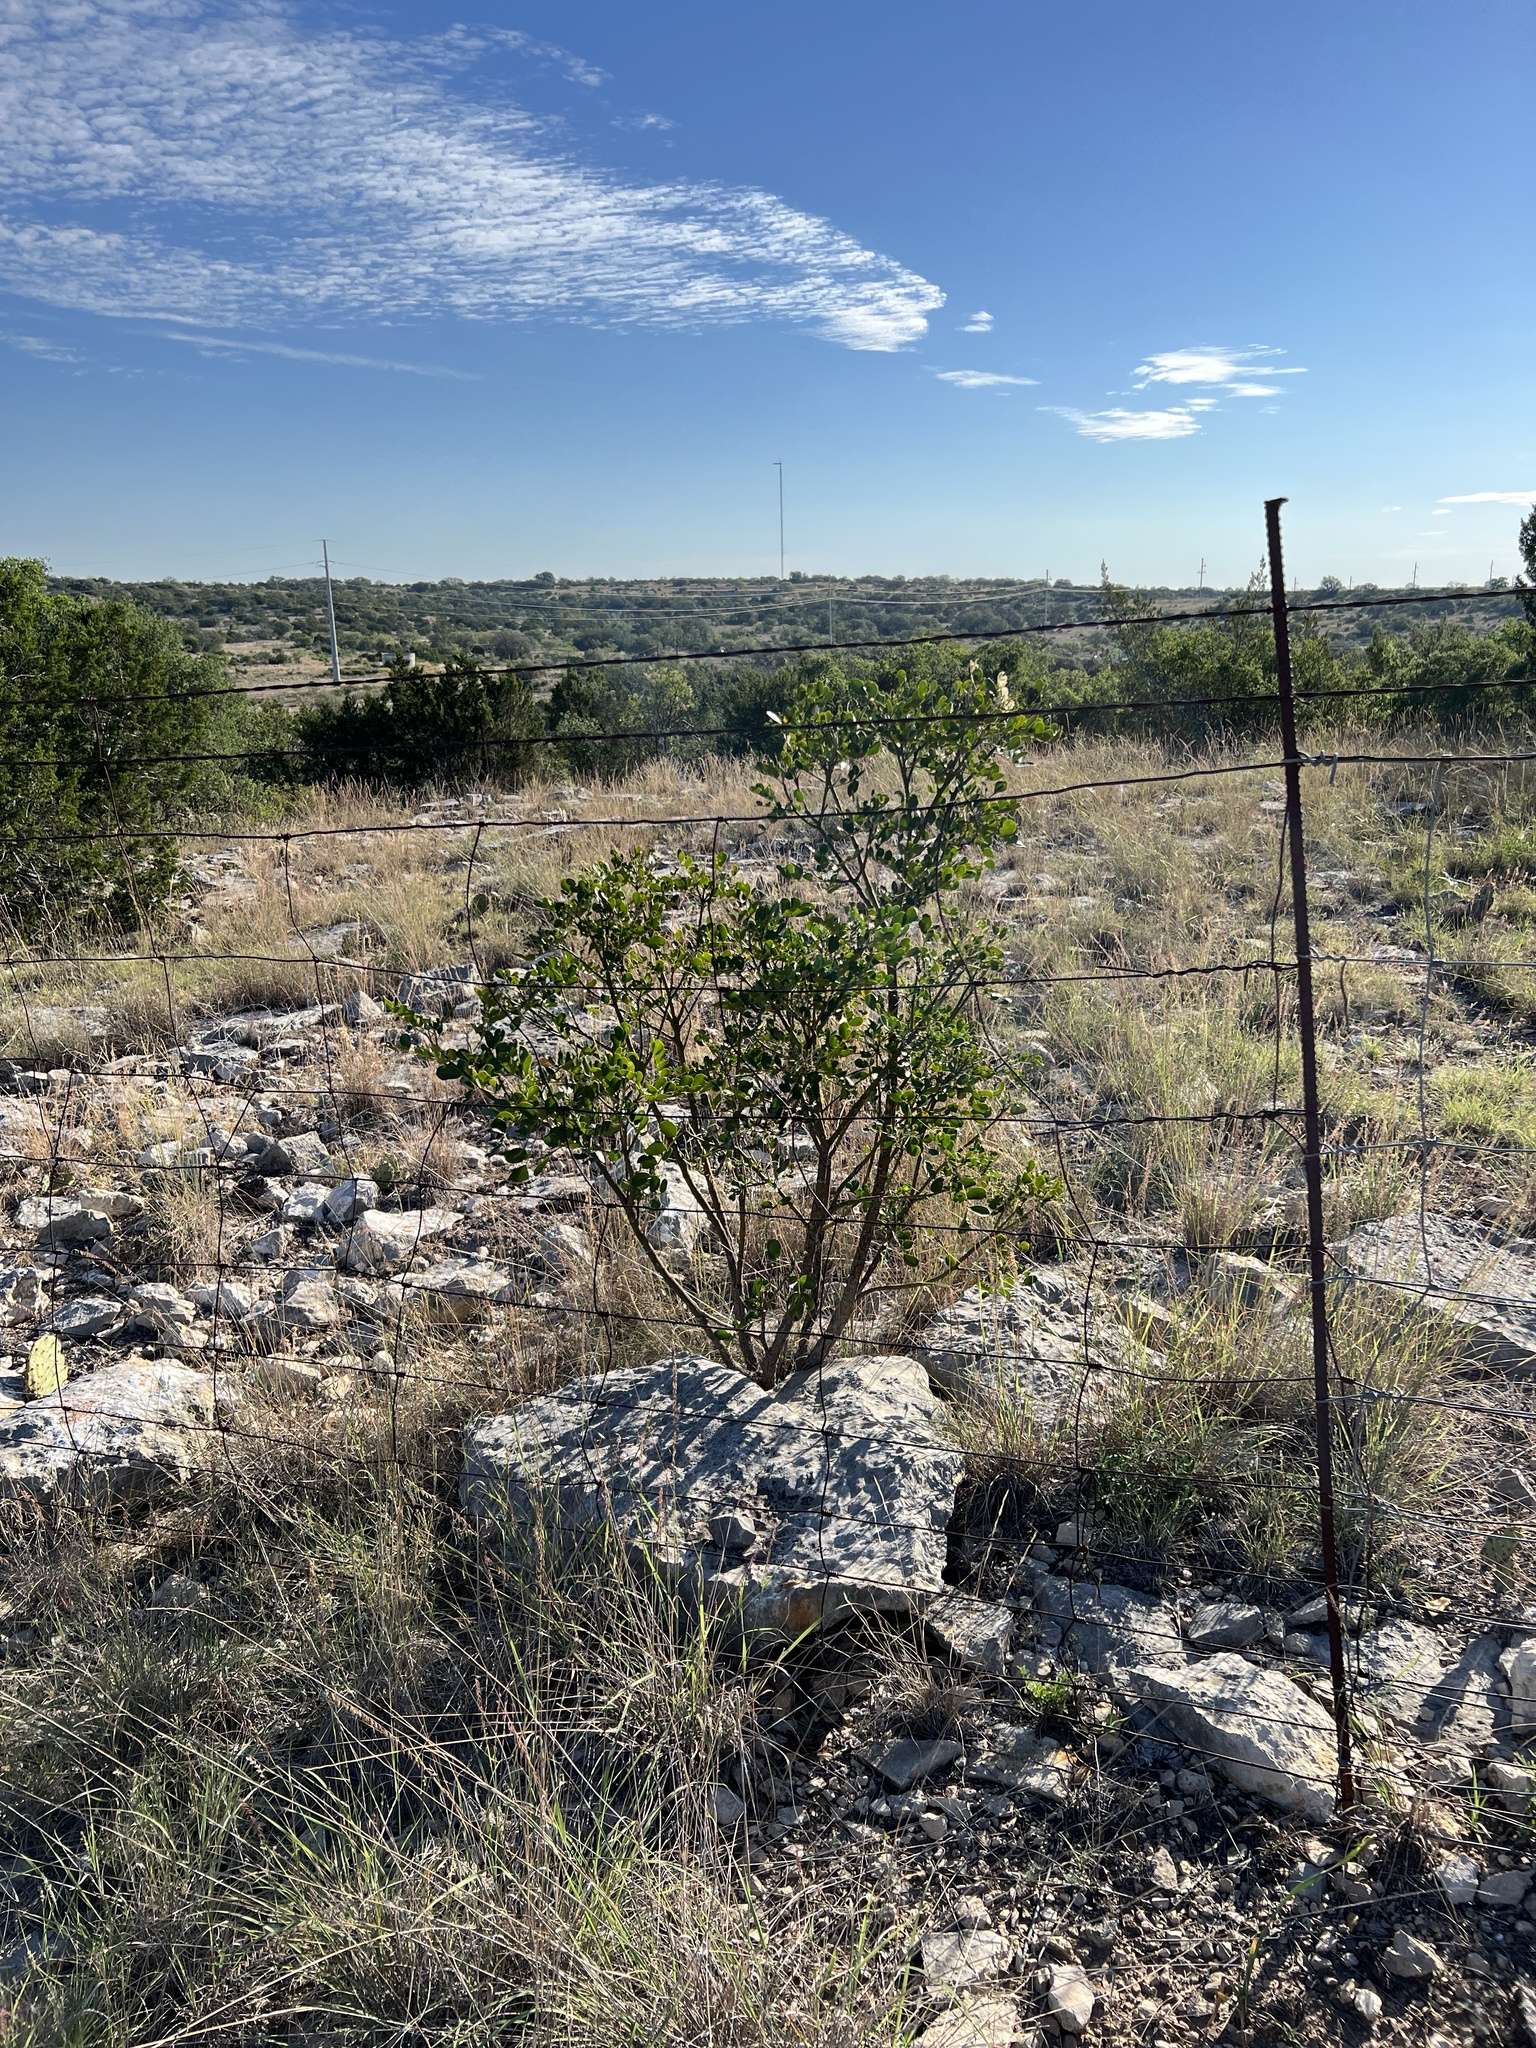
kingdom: Plantae
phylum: Tracheophyta
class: Magnoliopsida
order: Fabales
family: Fabaceae
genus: Dermatophyllum
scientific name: Dermatophyllum secundiflorum
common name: Texas-mountain-laurel
